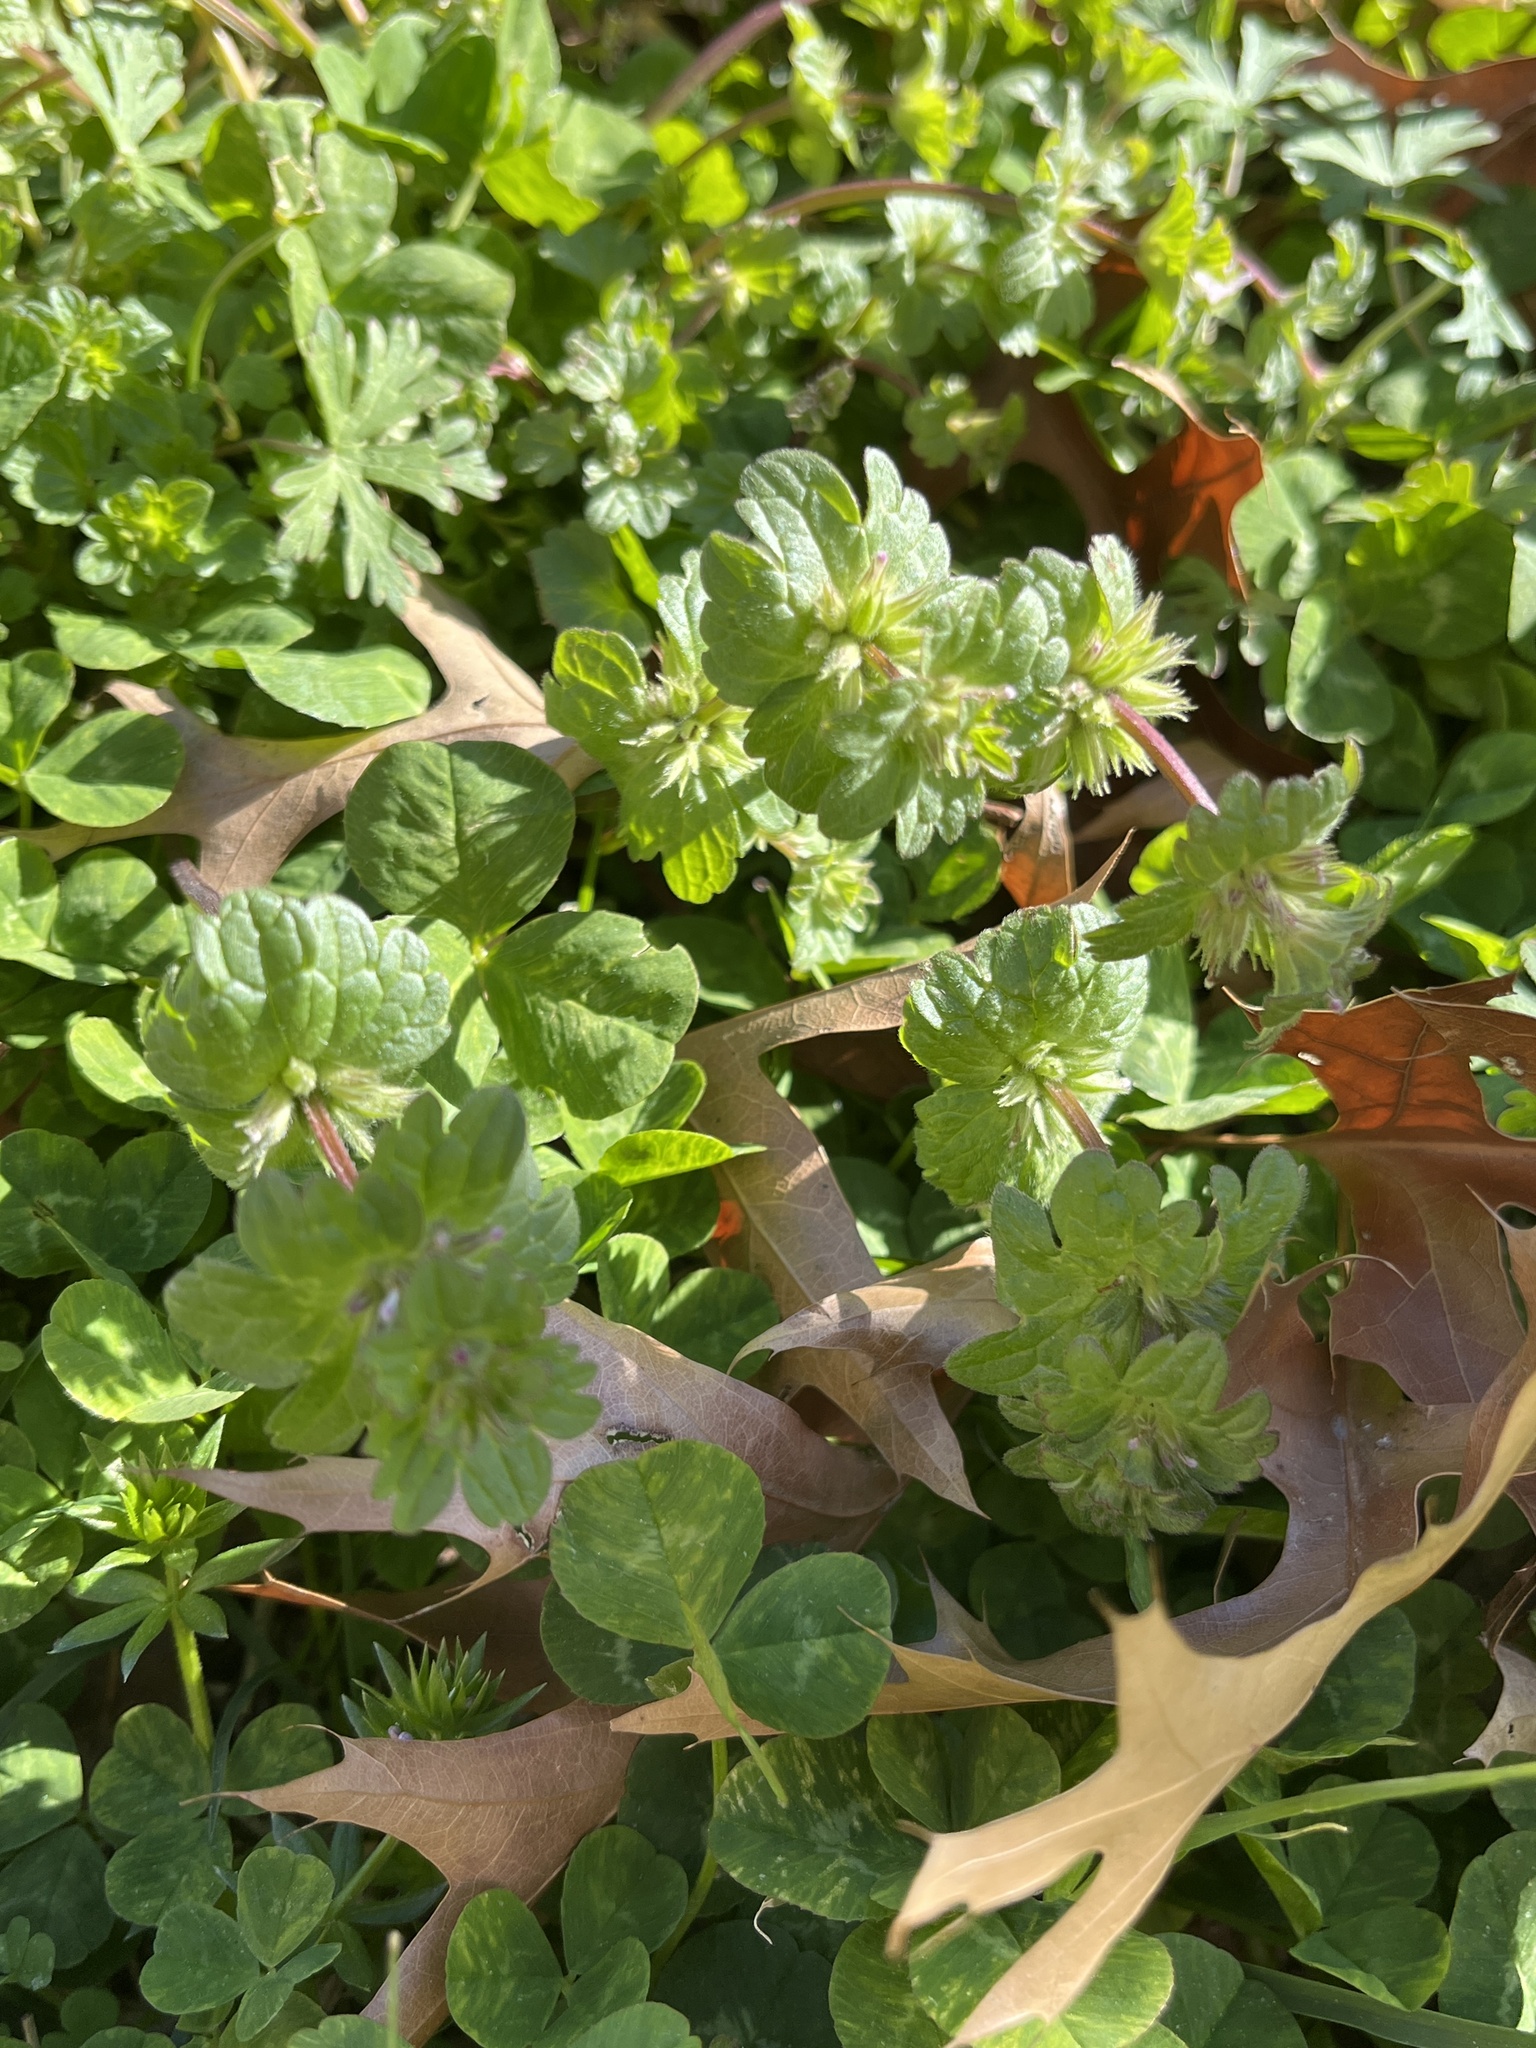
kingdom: Plantae
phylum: Tracheophyta
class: Magnoliopsida
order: Lamiales
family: Lamiaceae
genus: Lamium
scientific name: Lamium amplexicaule
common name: Henbit dead-nettle
